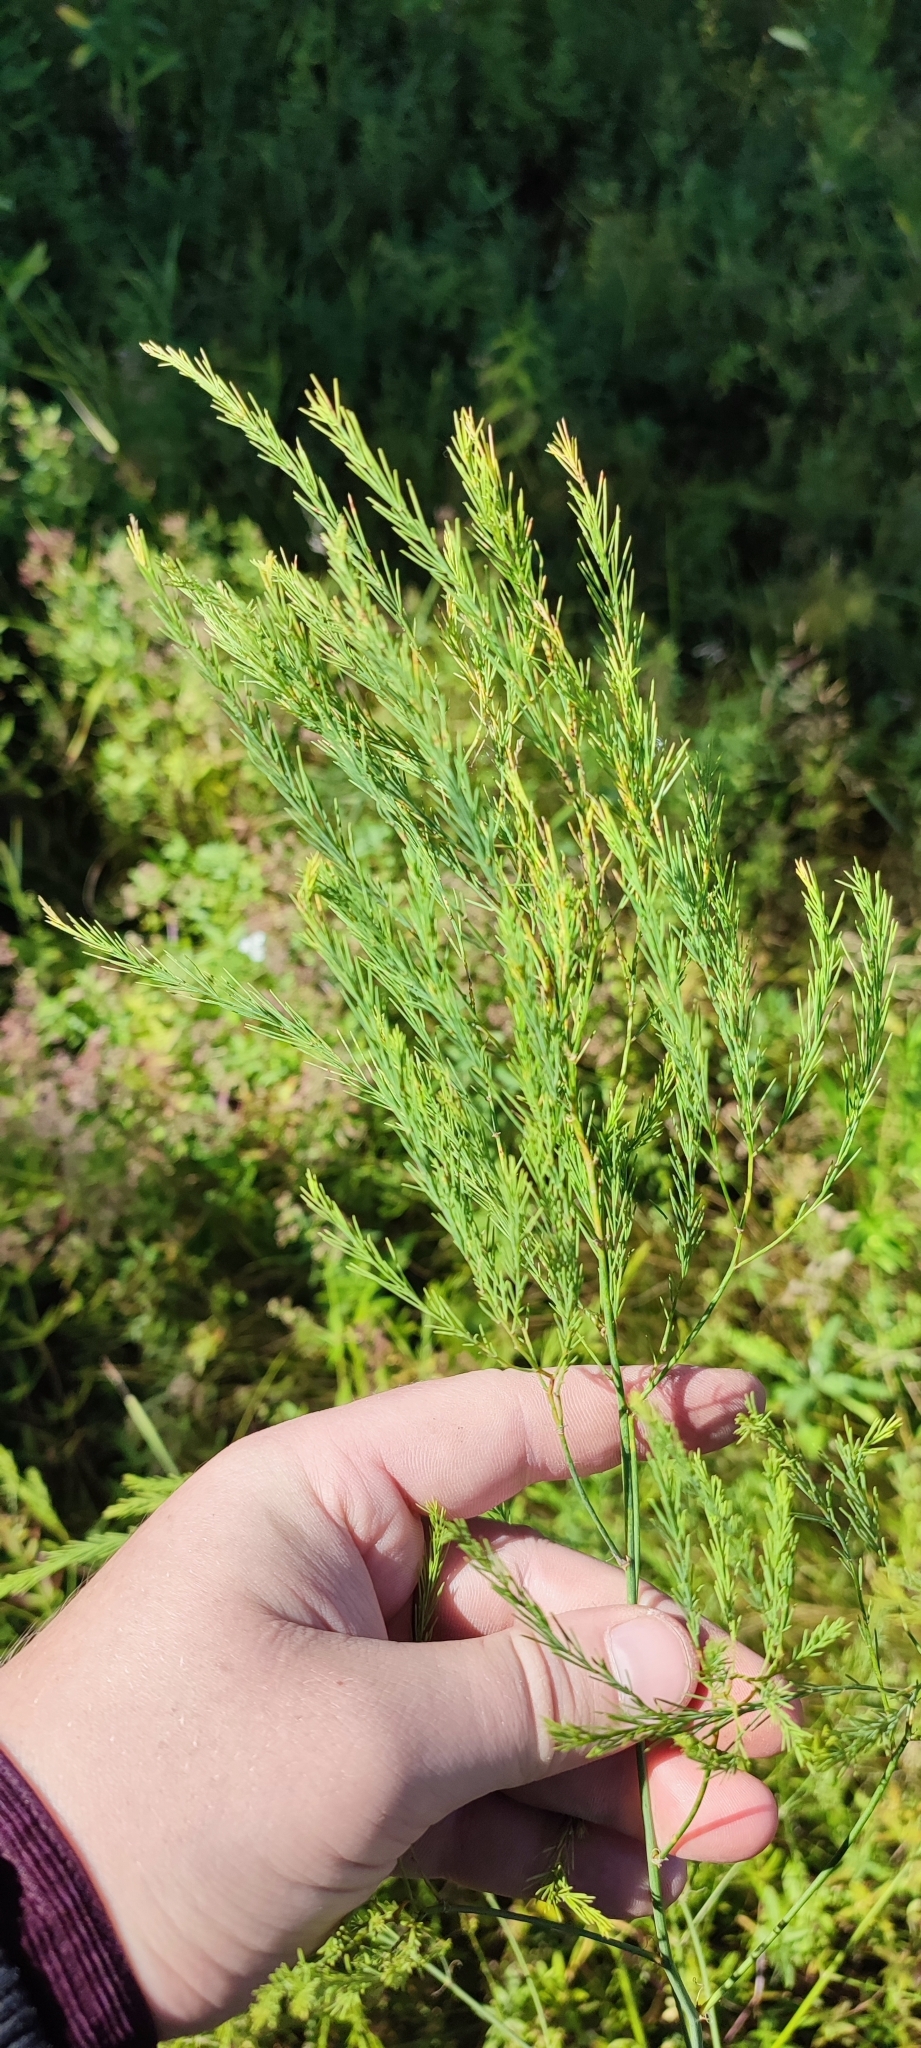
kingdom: Plantae
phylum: Tracheophyta
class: Liliopsida
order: Asparagales
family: Asparagaceae
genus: Asparagus
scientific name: Asparagus officinalis
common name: Garden asparagus
